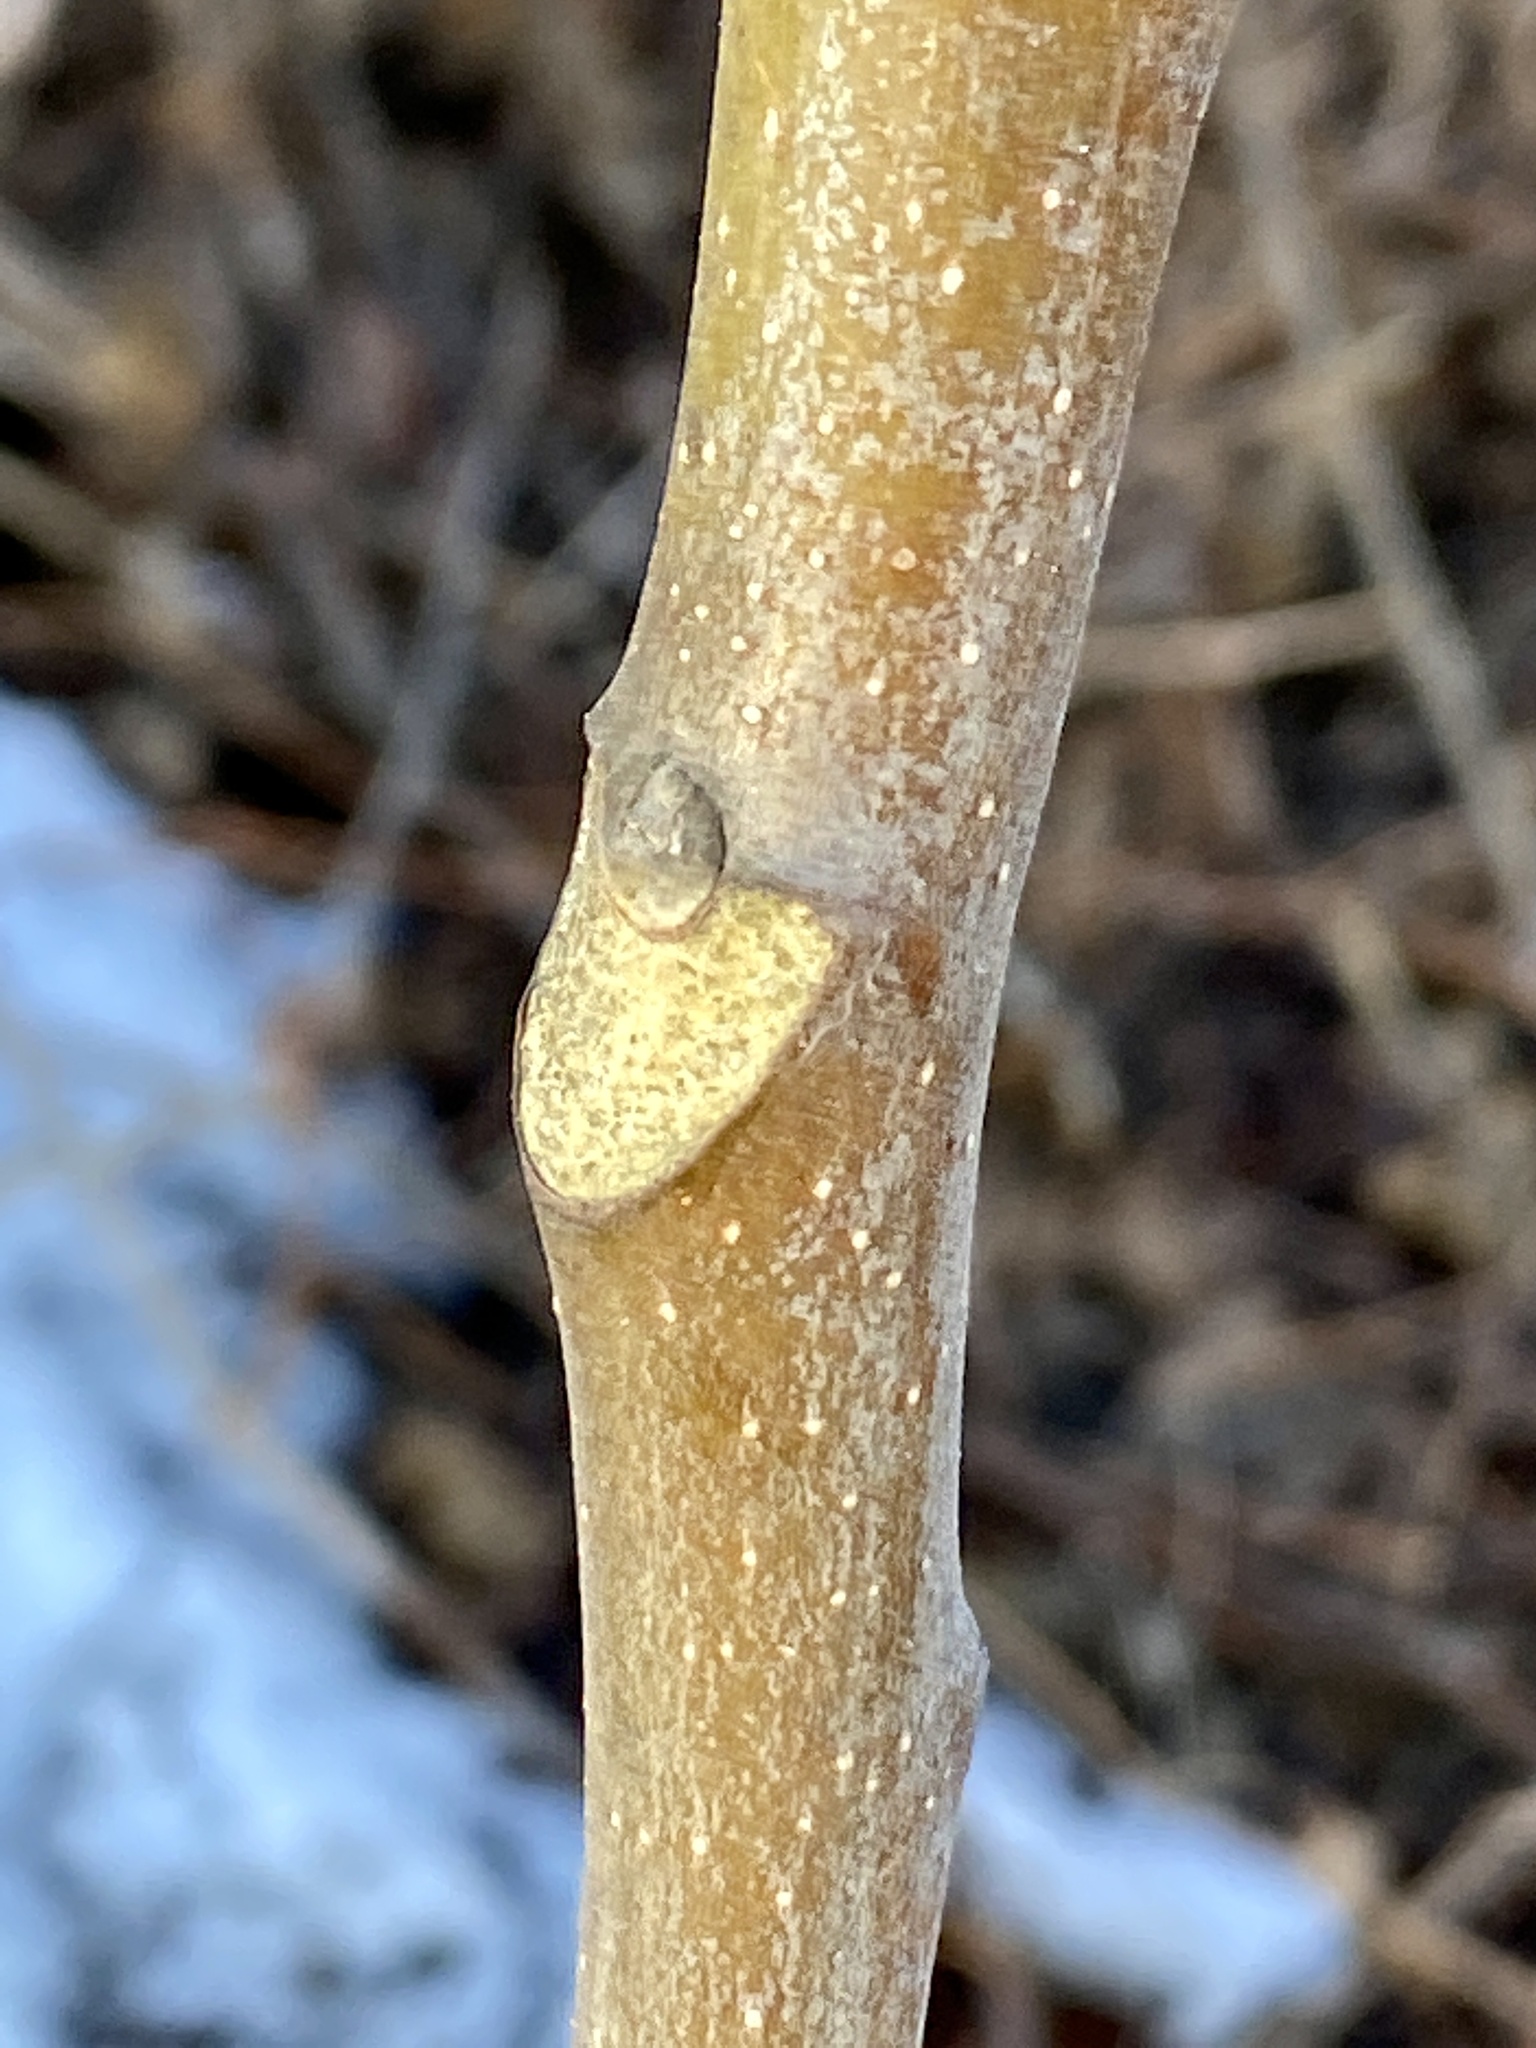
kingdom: Plantae
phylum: Tracheophyta
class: Magnoliopsida
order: Sapindales
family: Simaroubaceae
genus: Ailanthus
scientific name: Ailanthus altissima
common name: Tree-of-heaven
